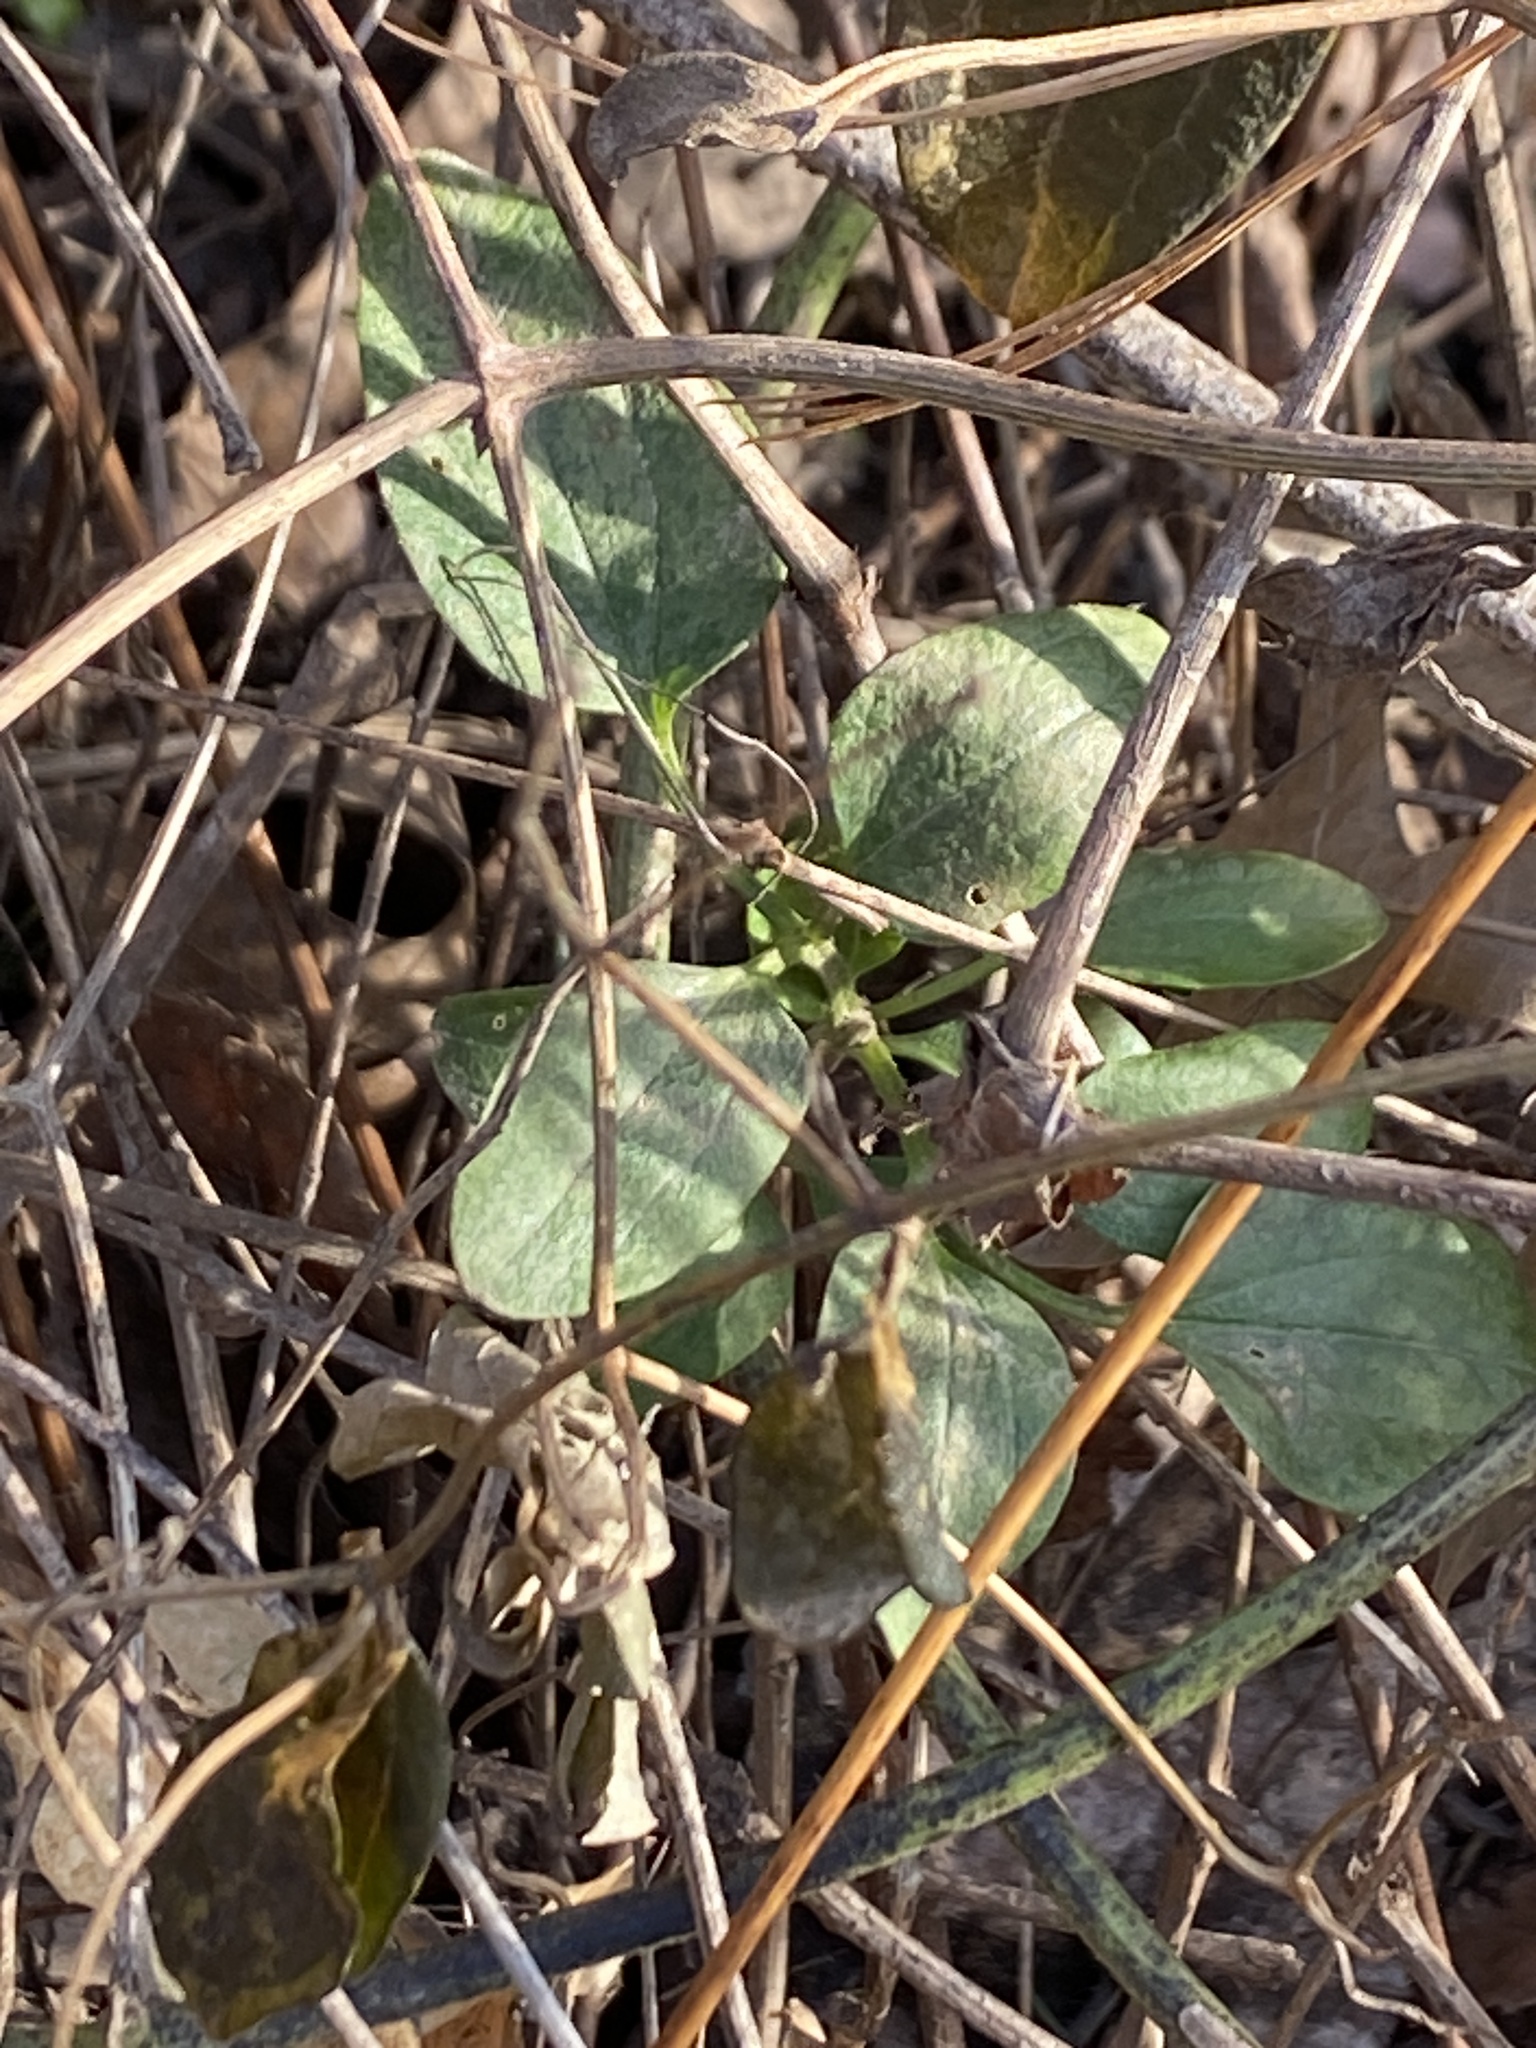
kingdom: Plantae
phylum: Tracheophyta
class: Magnoliopsida
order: Ranunculales
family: Ranunculaceae
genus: Clematis
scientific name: Clematis terniflora
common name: Sweet autumn clematis
